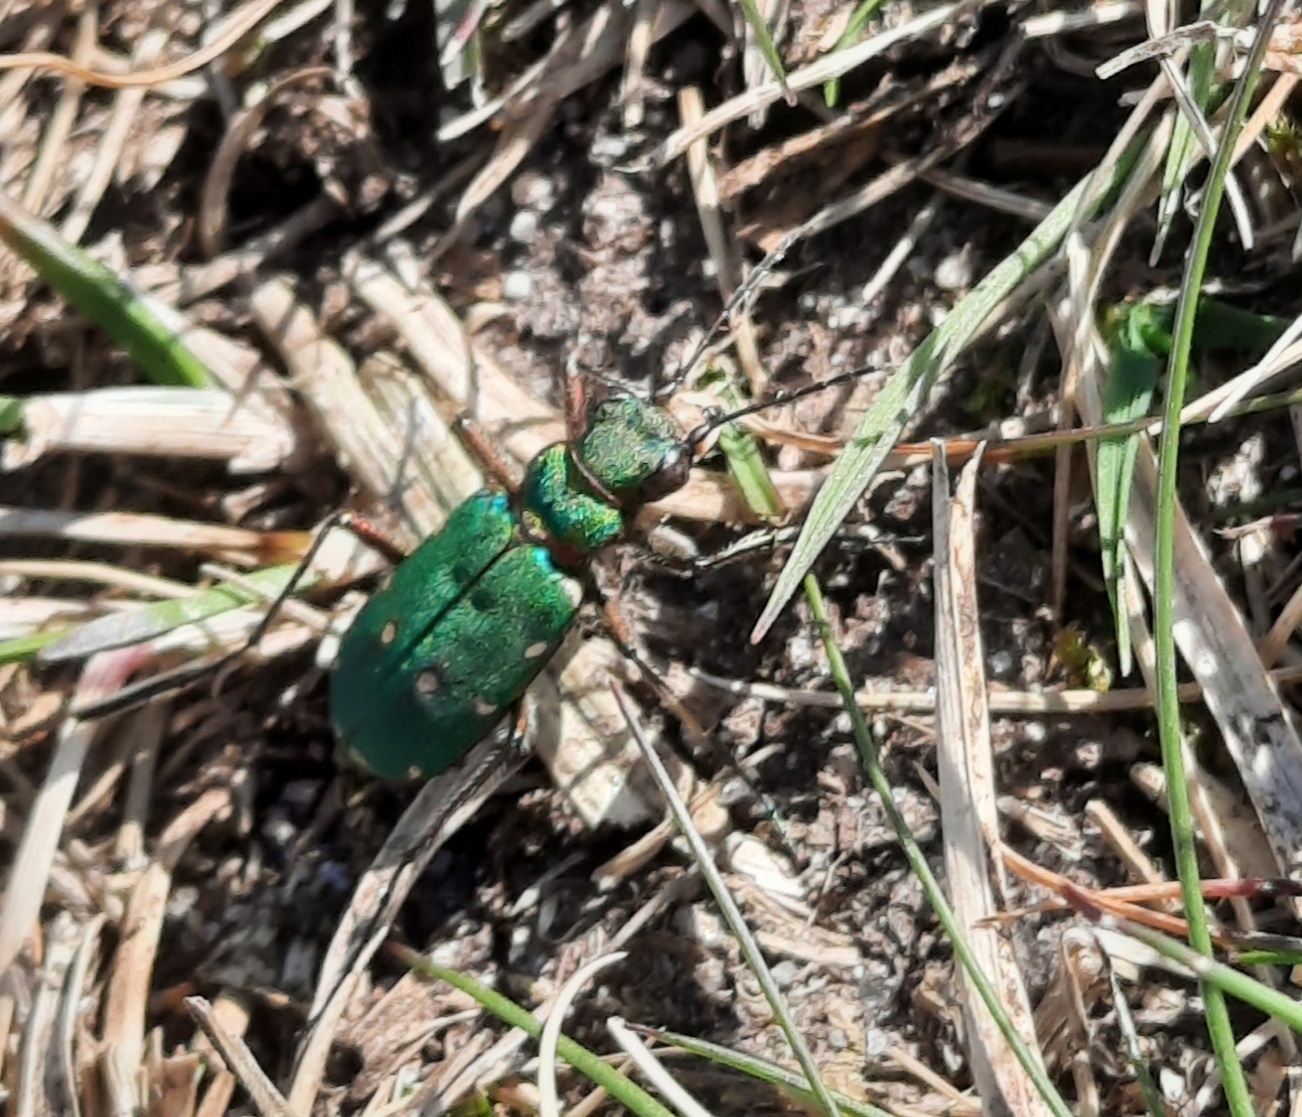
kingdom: Animalia
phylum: Arthropoda
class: Insecta
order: Coleoptera
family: Carabidae
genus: Cicindela
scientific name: Cicindela campestris
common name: Common tiger beetle
